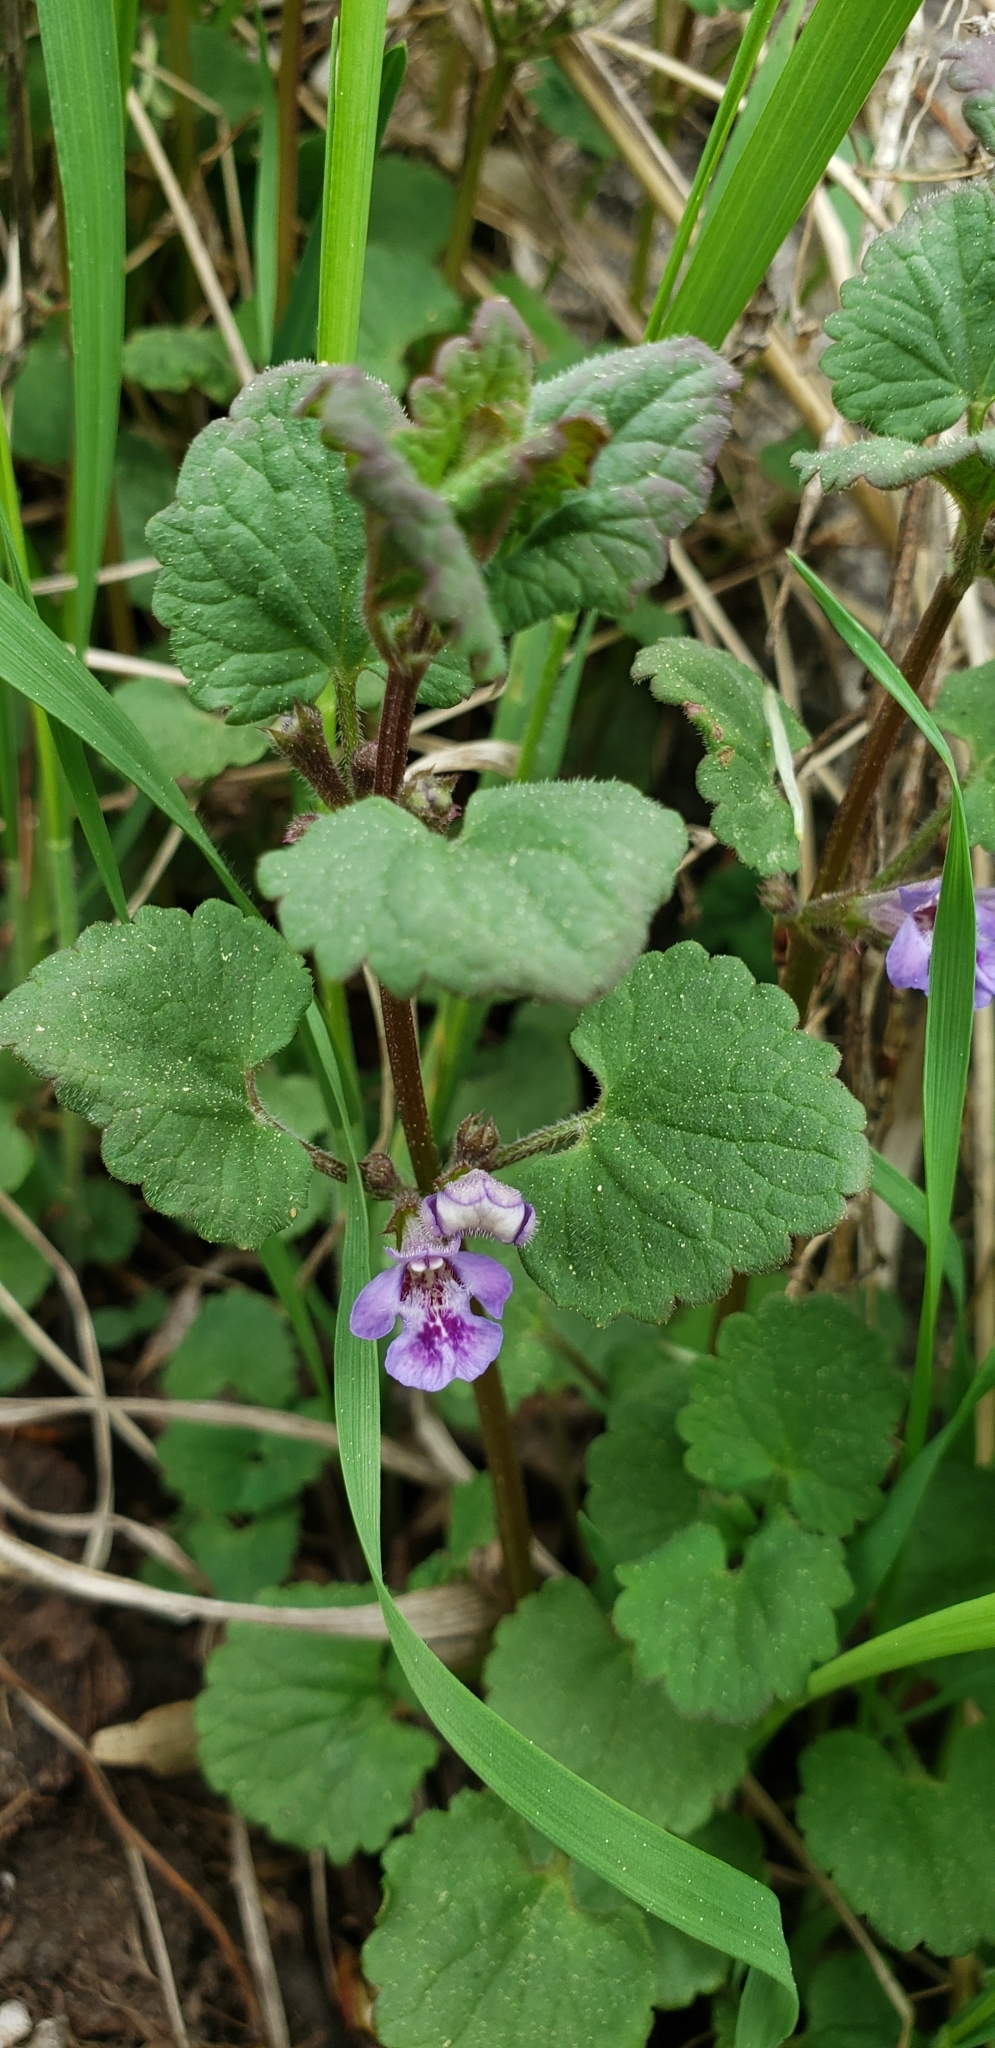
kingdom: Plantae
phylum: Tracheophyta
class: Magnoliopsida
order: Lamiales
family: Lamiaceae
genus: Glechoma
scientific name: Glechoma hederacea
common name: Ground ivy
